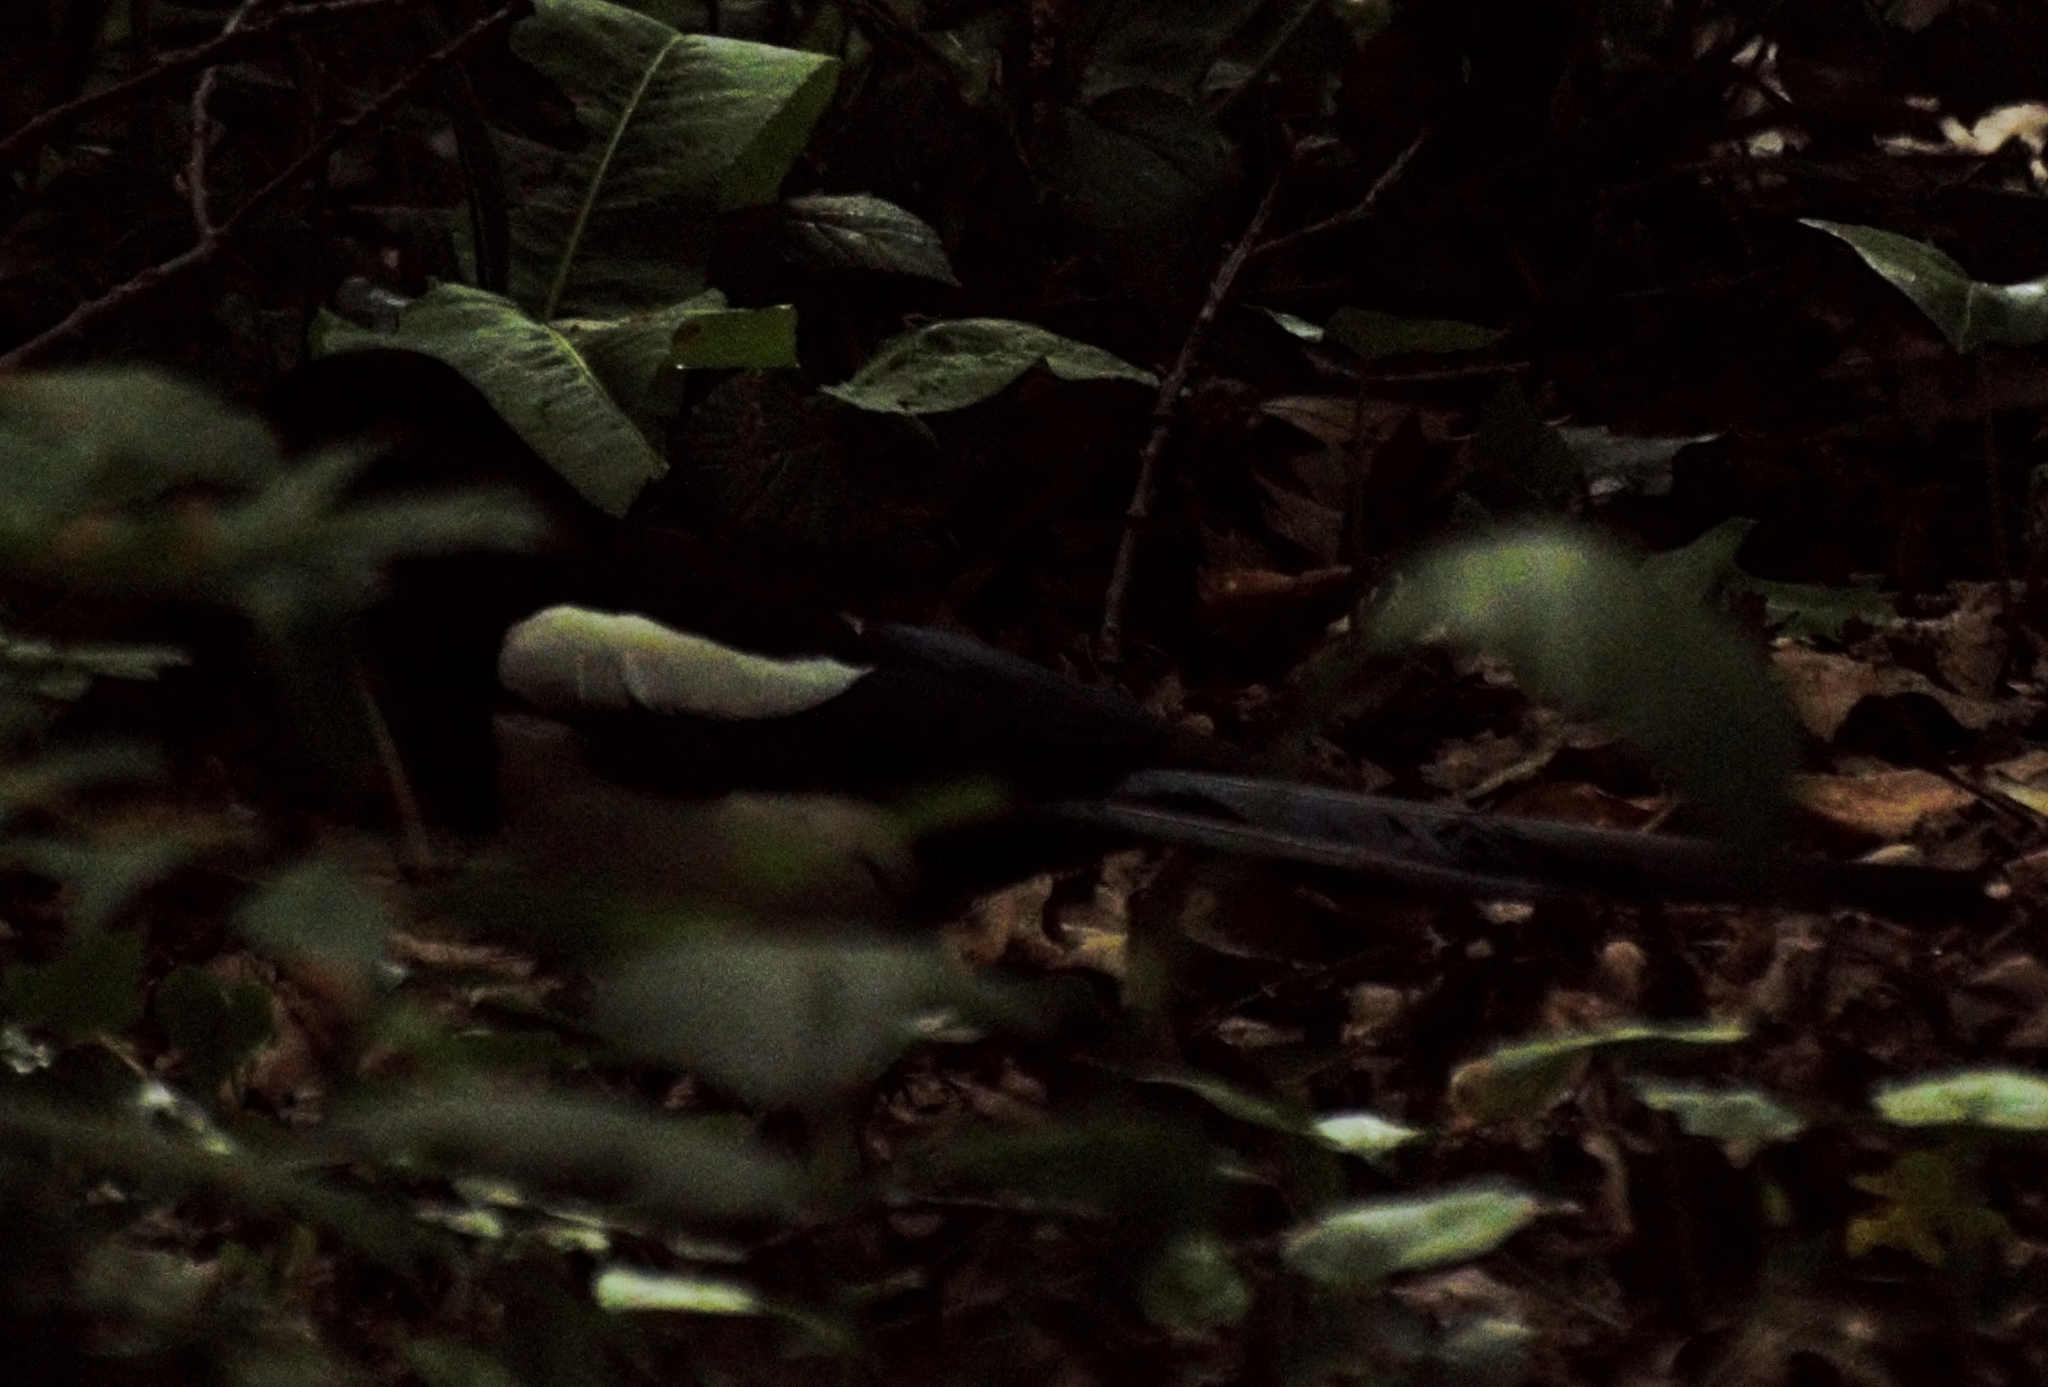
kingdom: Animalia
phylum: Chordata
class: Aves
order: Passeriformes
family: Corvidae
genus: Pica
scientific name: Pica pica
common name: Eurasian magpie
